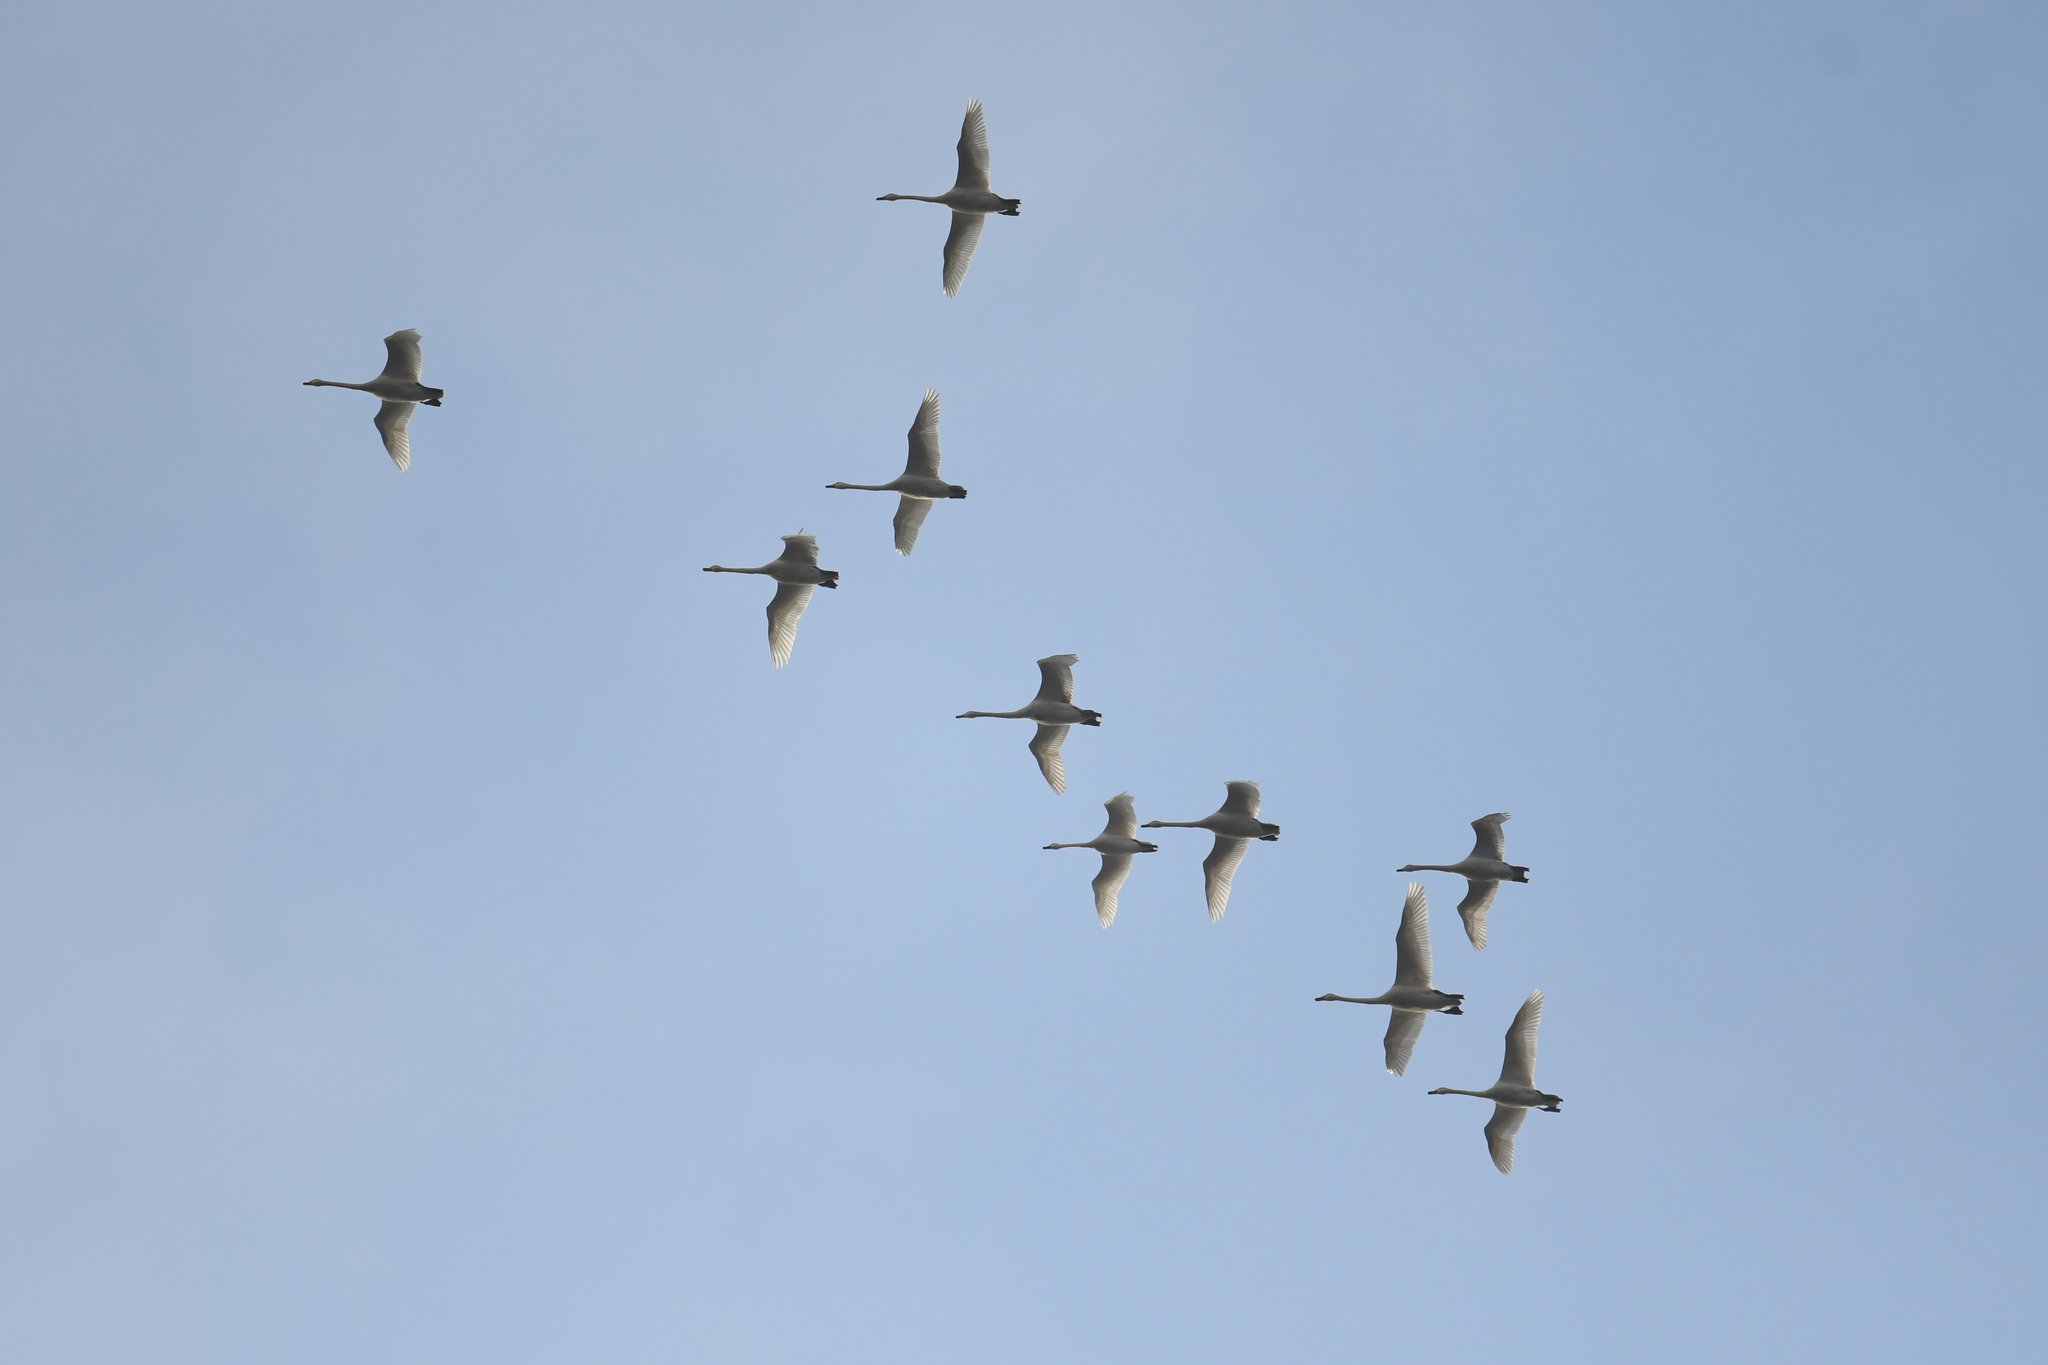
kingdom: Animalia
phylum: Chordata
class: Aves
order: Anseriformes
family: Anatidae
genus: Cygnus
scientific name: Cygnus cygnus
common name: Whooper swan
